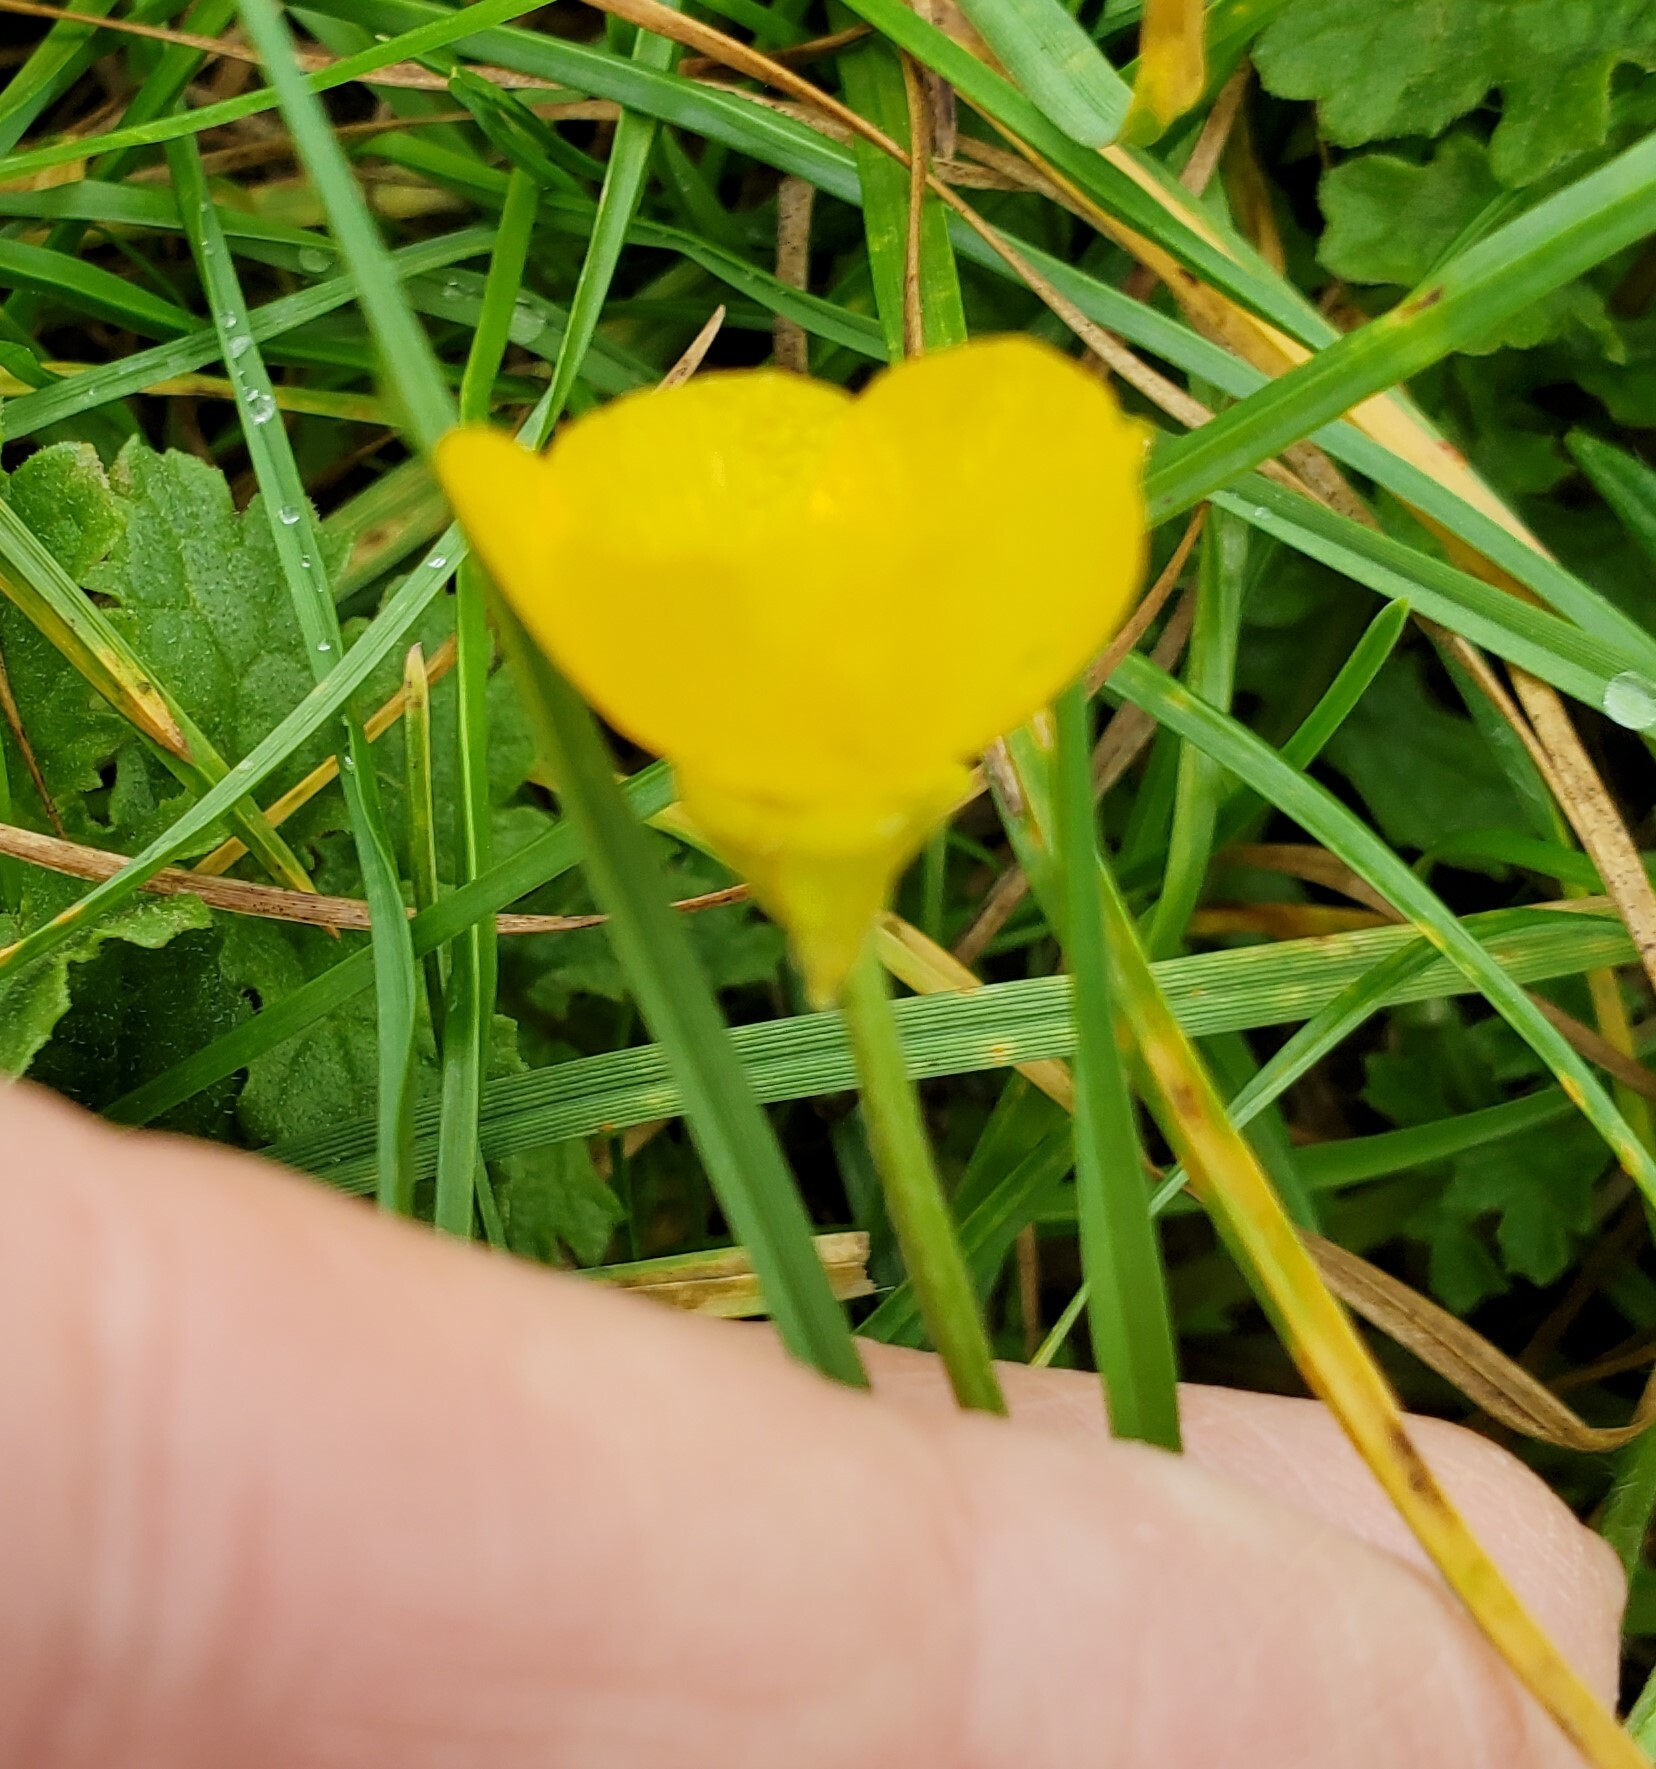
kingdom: Plantae
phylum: Tracheophyta
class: Magnoliopsida
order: Ranunculales
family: Ranunculaceae
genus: Ranunculus
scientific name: Ranunculus bulbosus
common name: Bulbous buttercup
